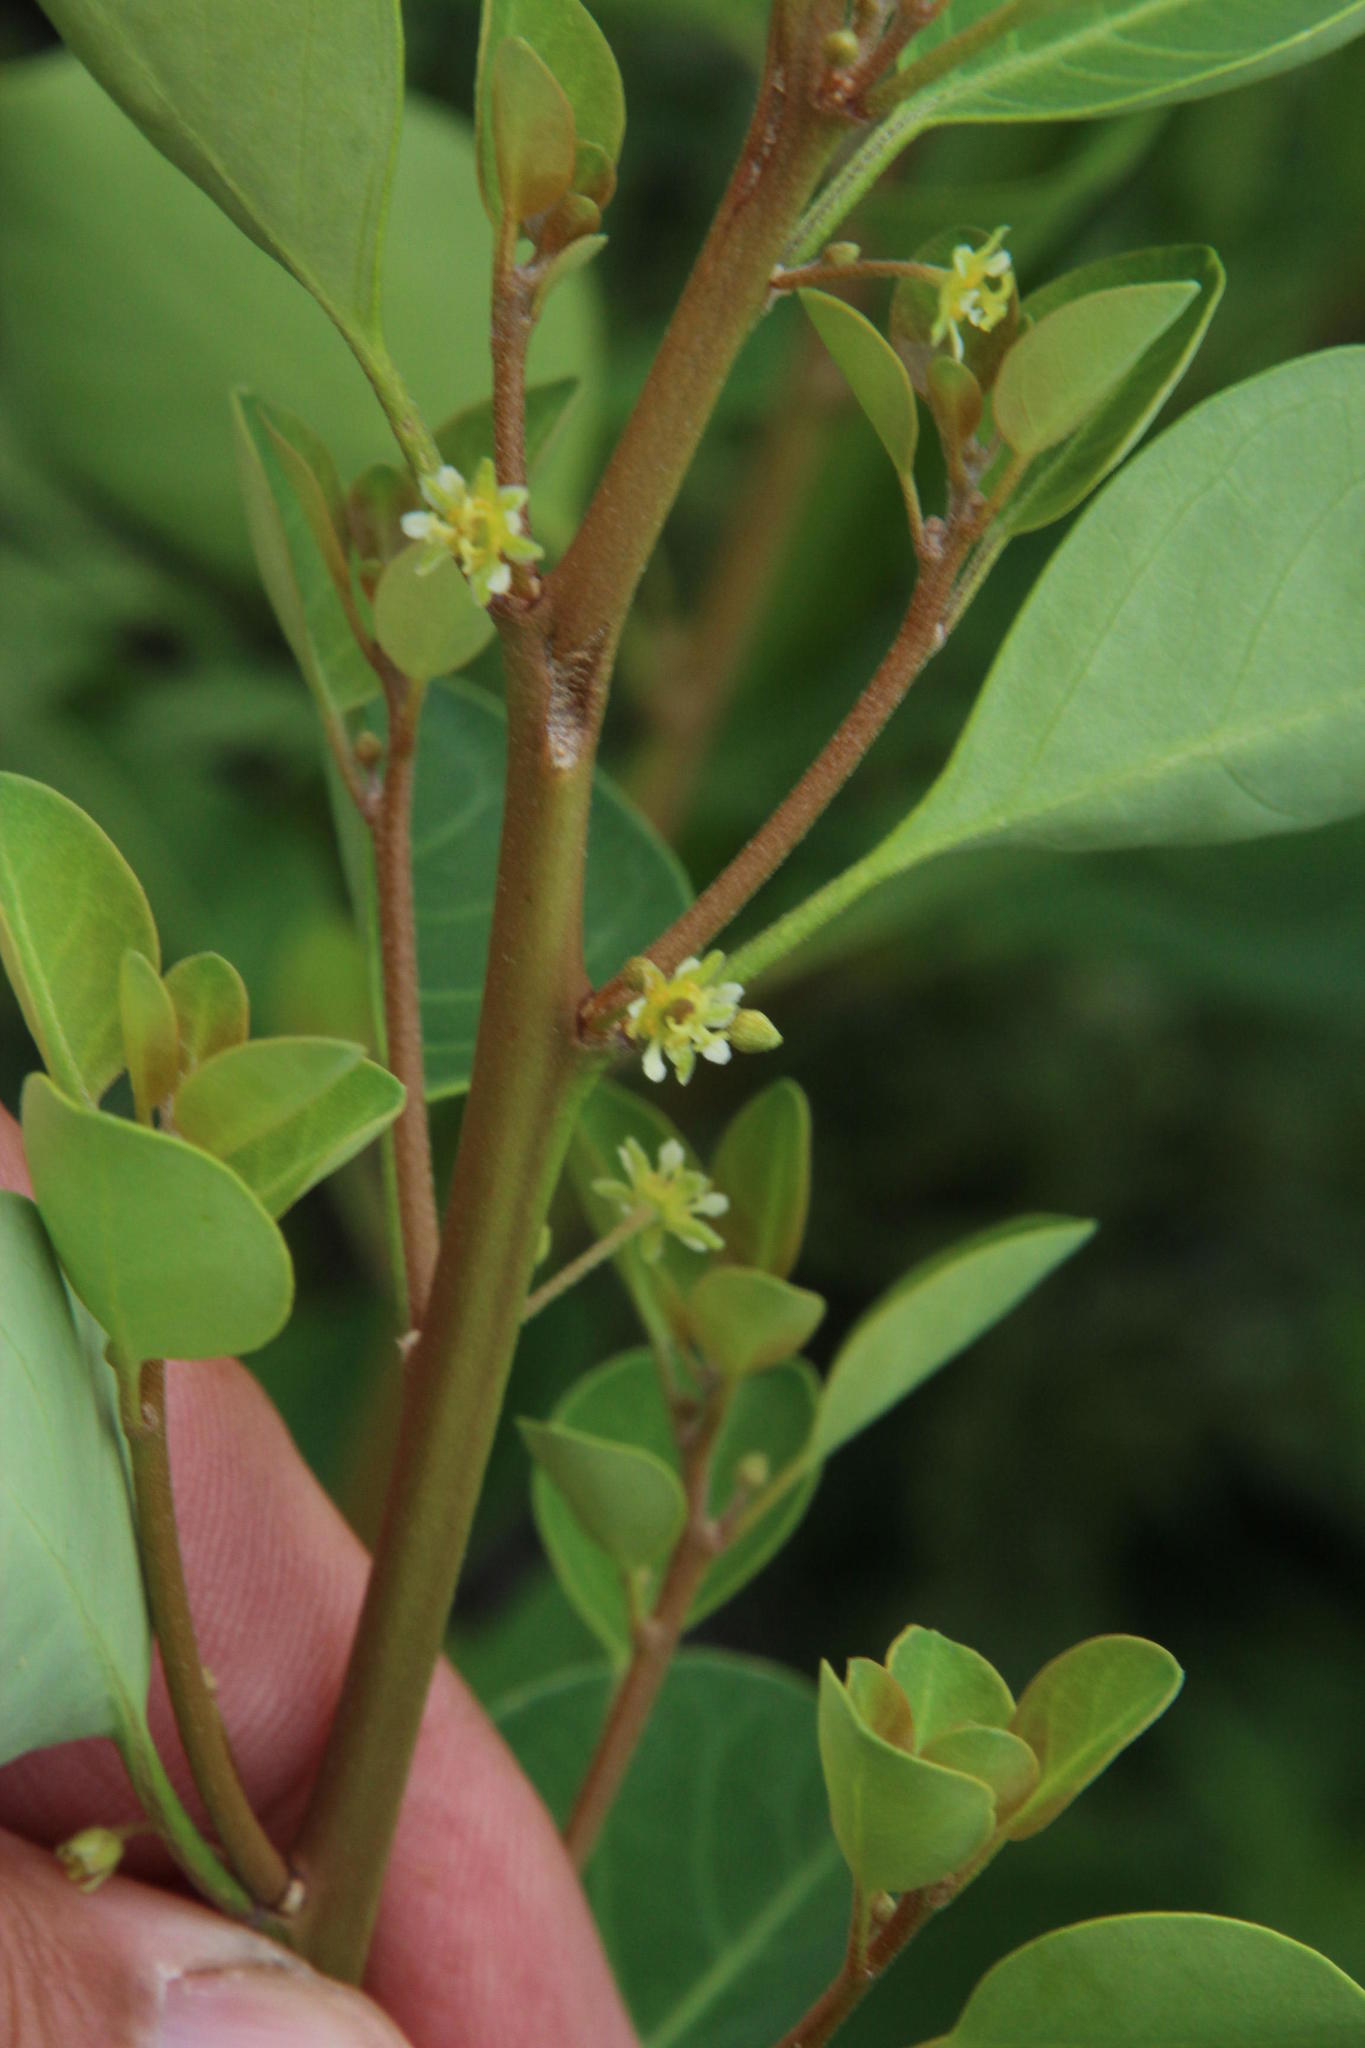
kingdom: Plantae
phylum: Tracheophyta
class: Magnoliopsida
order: Malpighiales
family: Peraceae
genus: Clutia
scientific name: Clutia pulchella
